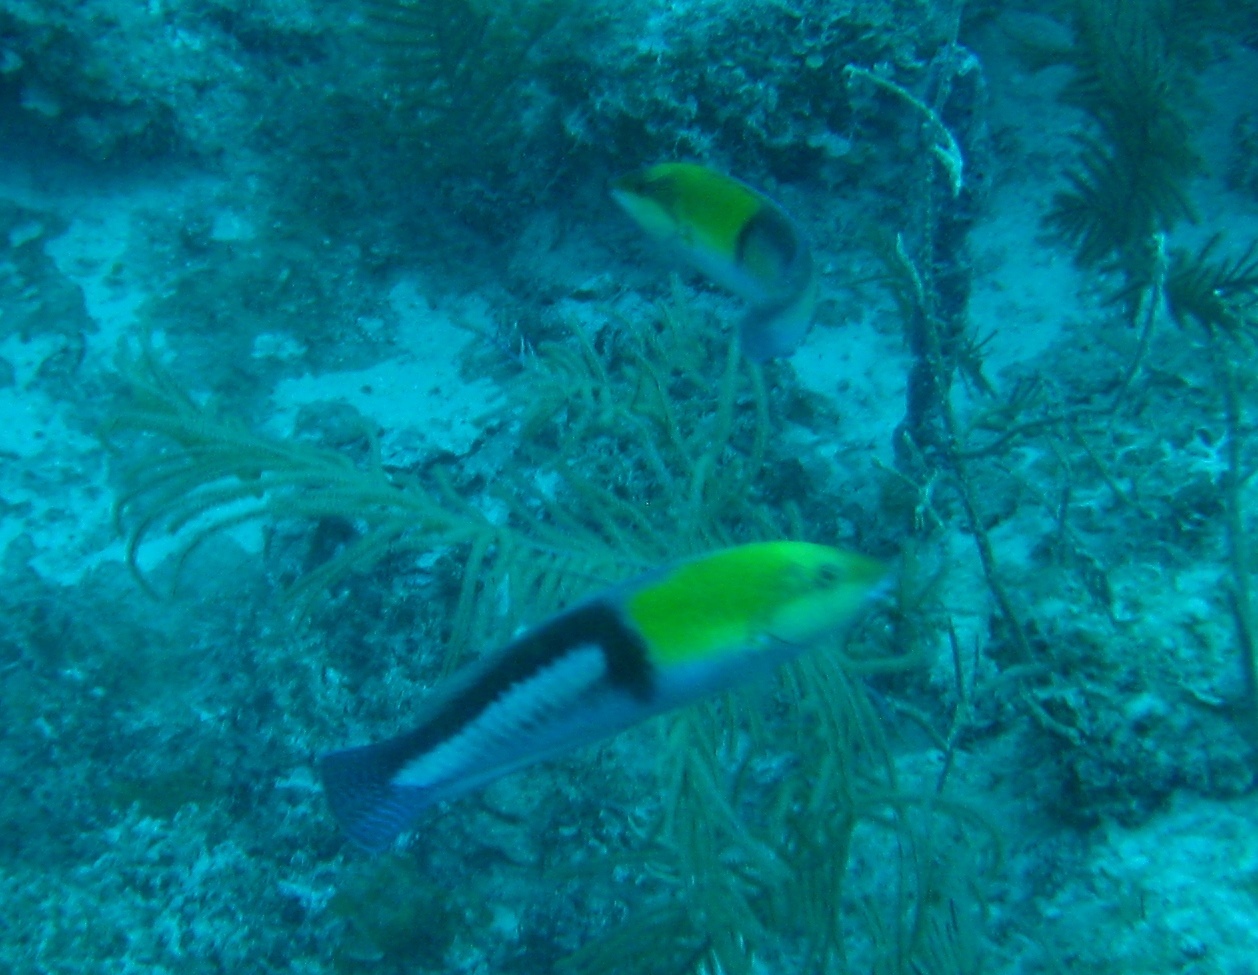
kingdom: Animalia
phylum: Chordata
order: Perciformes
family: Labridae
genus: Halichoeres
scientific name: Halichoeres garnoti
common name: Yellowhead wrasse
